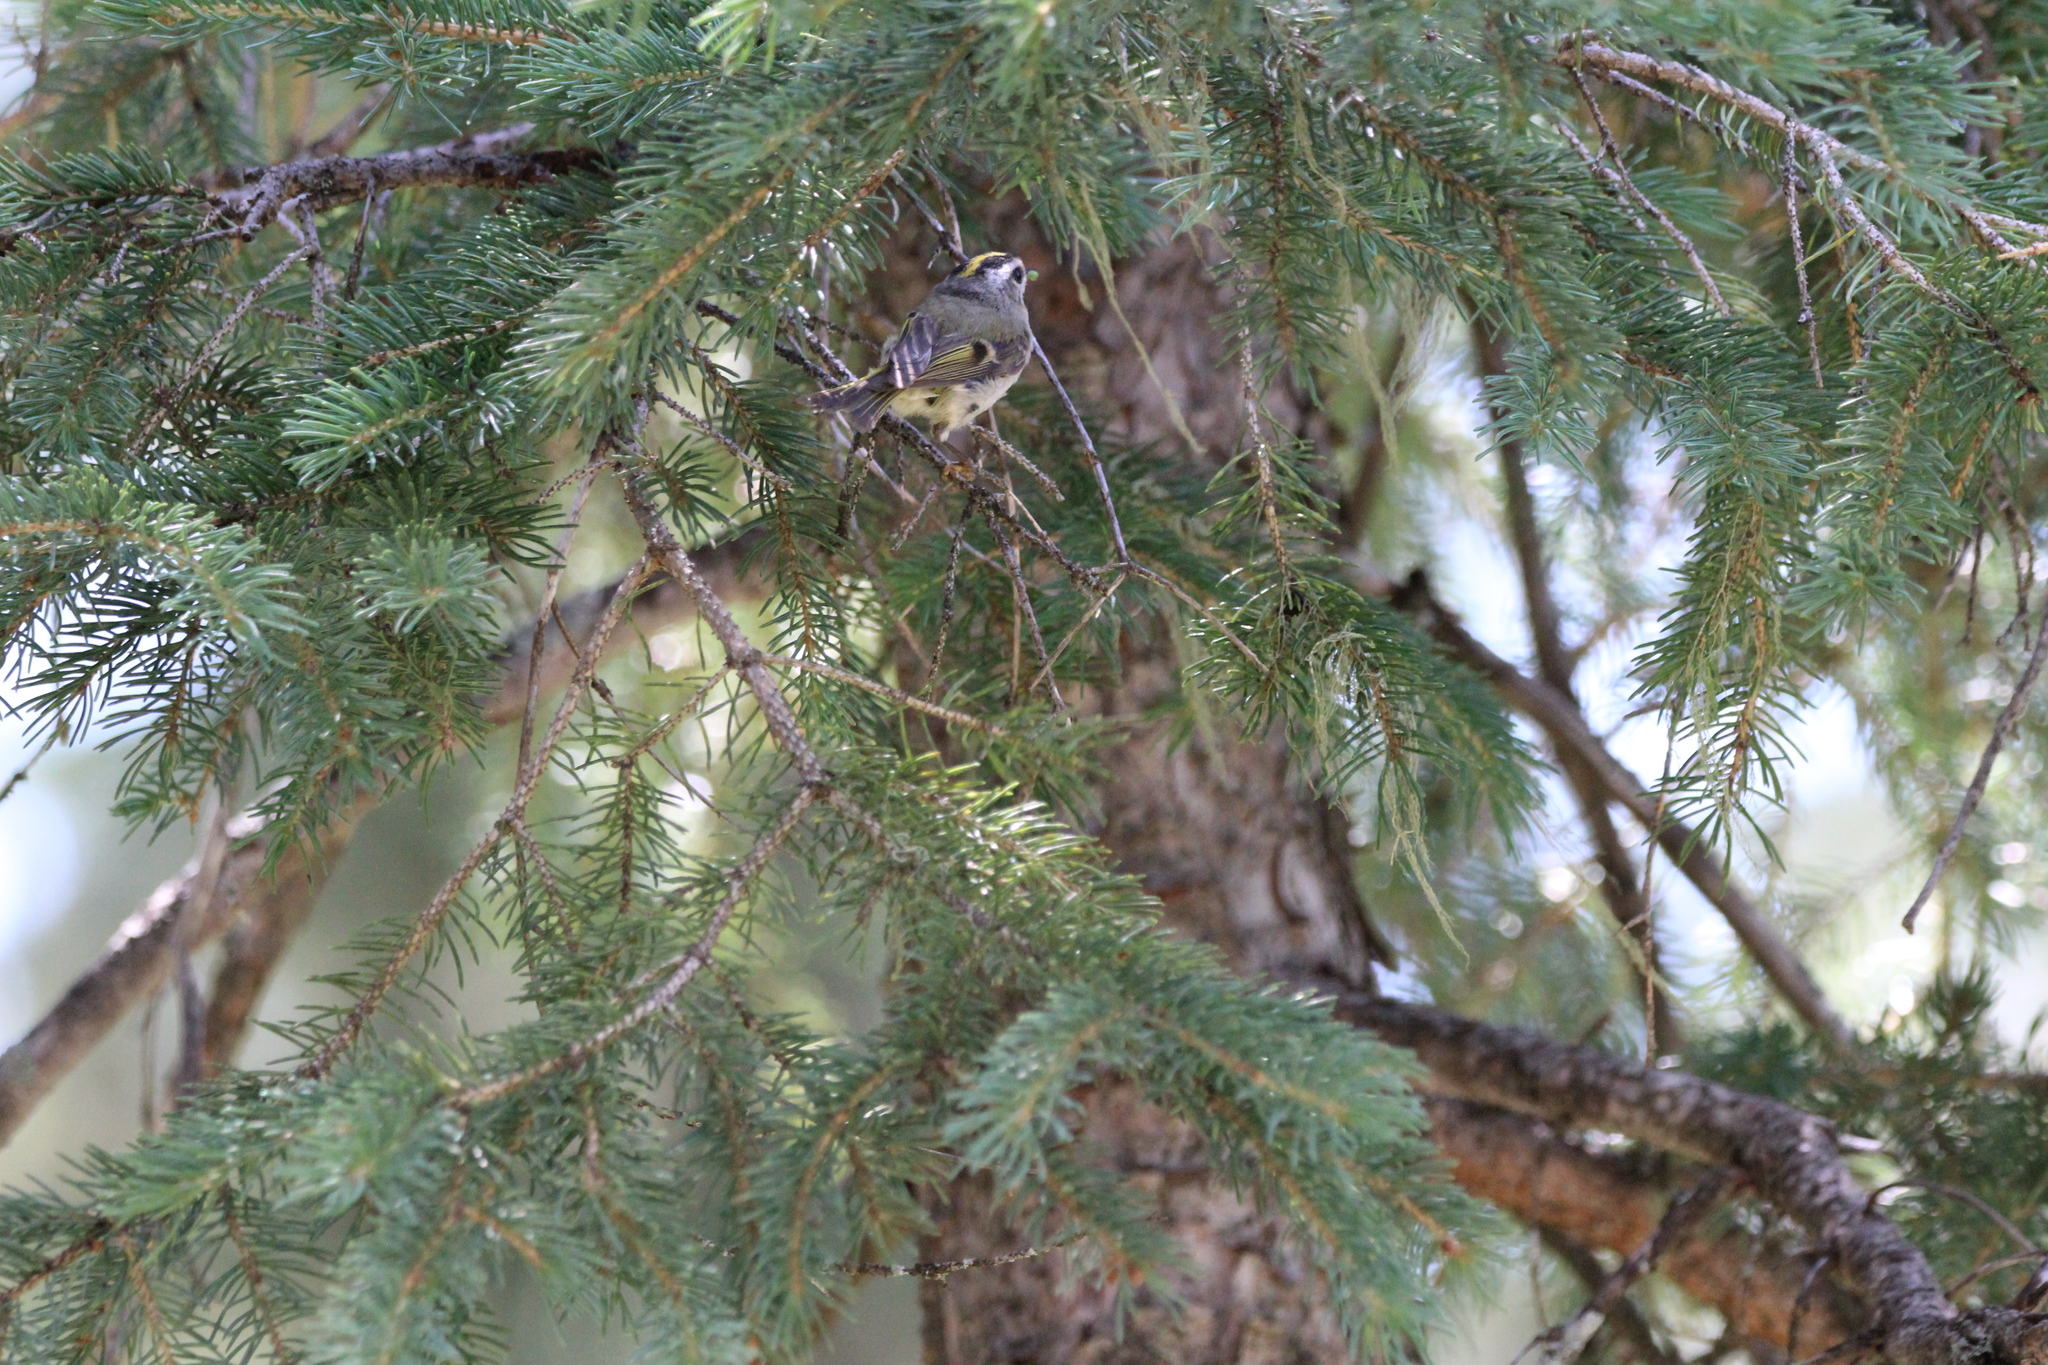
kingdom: Animalia
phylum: Chordata
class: Aves
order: Passeriformes
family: Regulidae
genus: Regulus
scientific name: Regulus satrapa
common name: Golden-crowned kinglet
